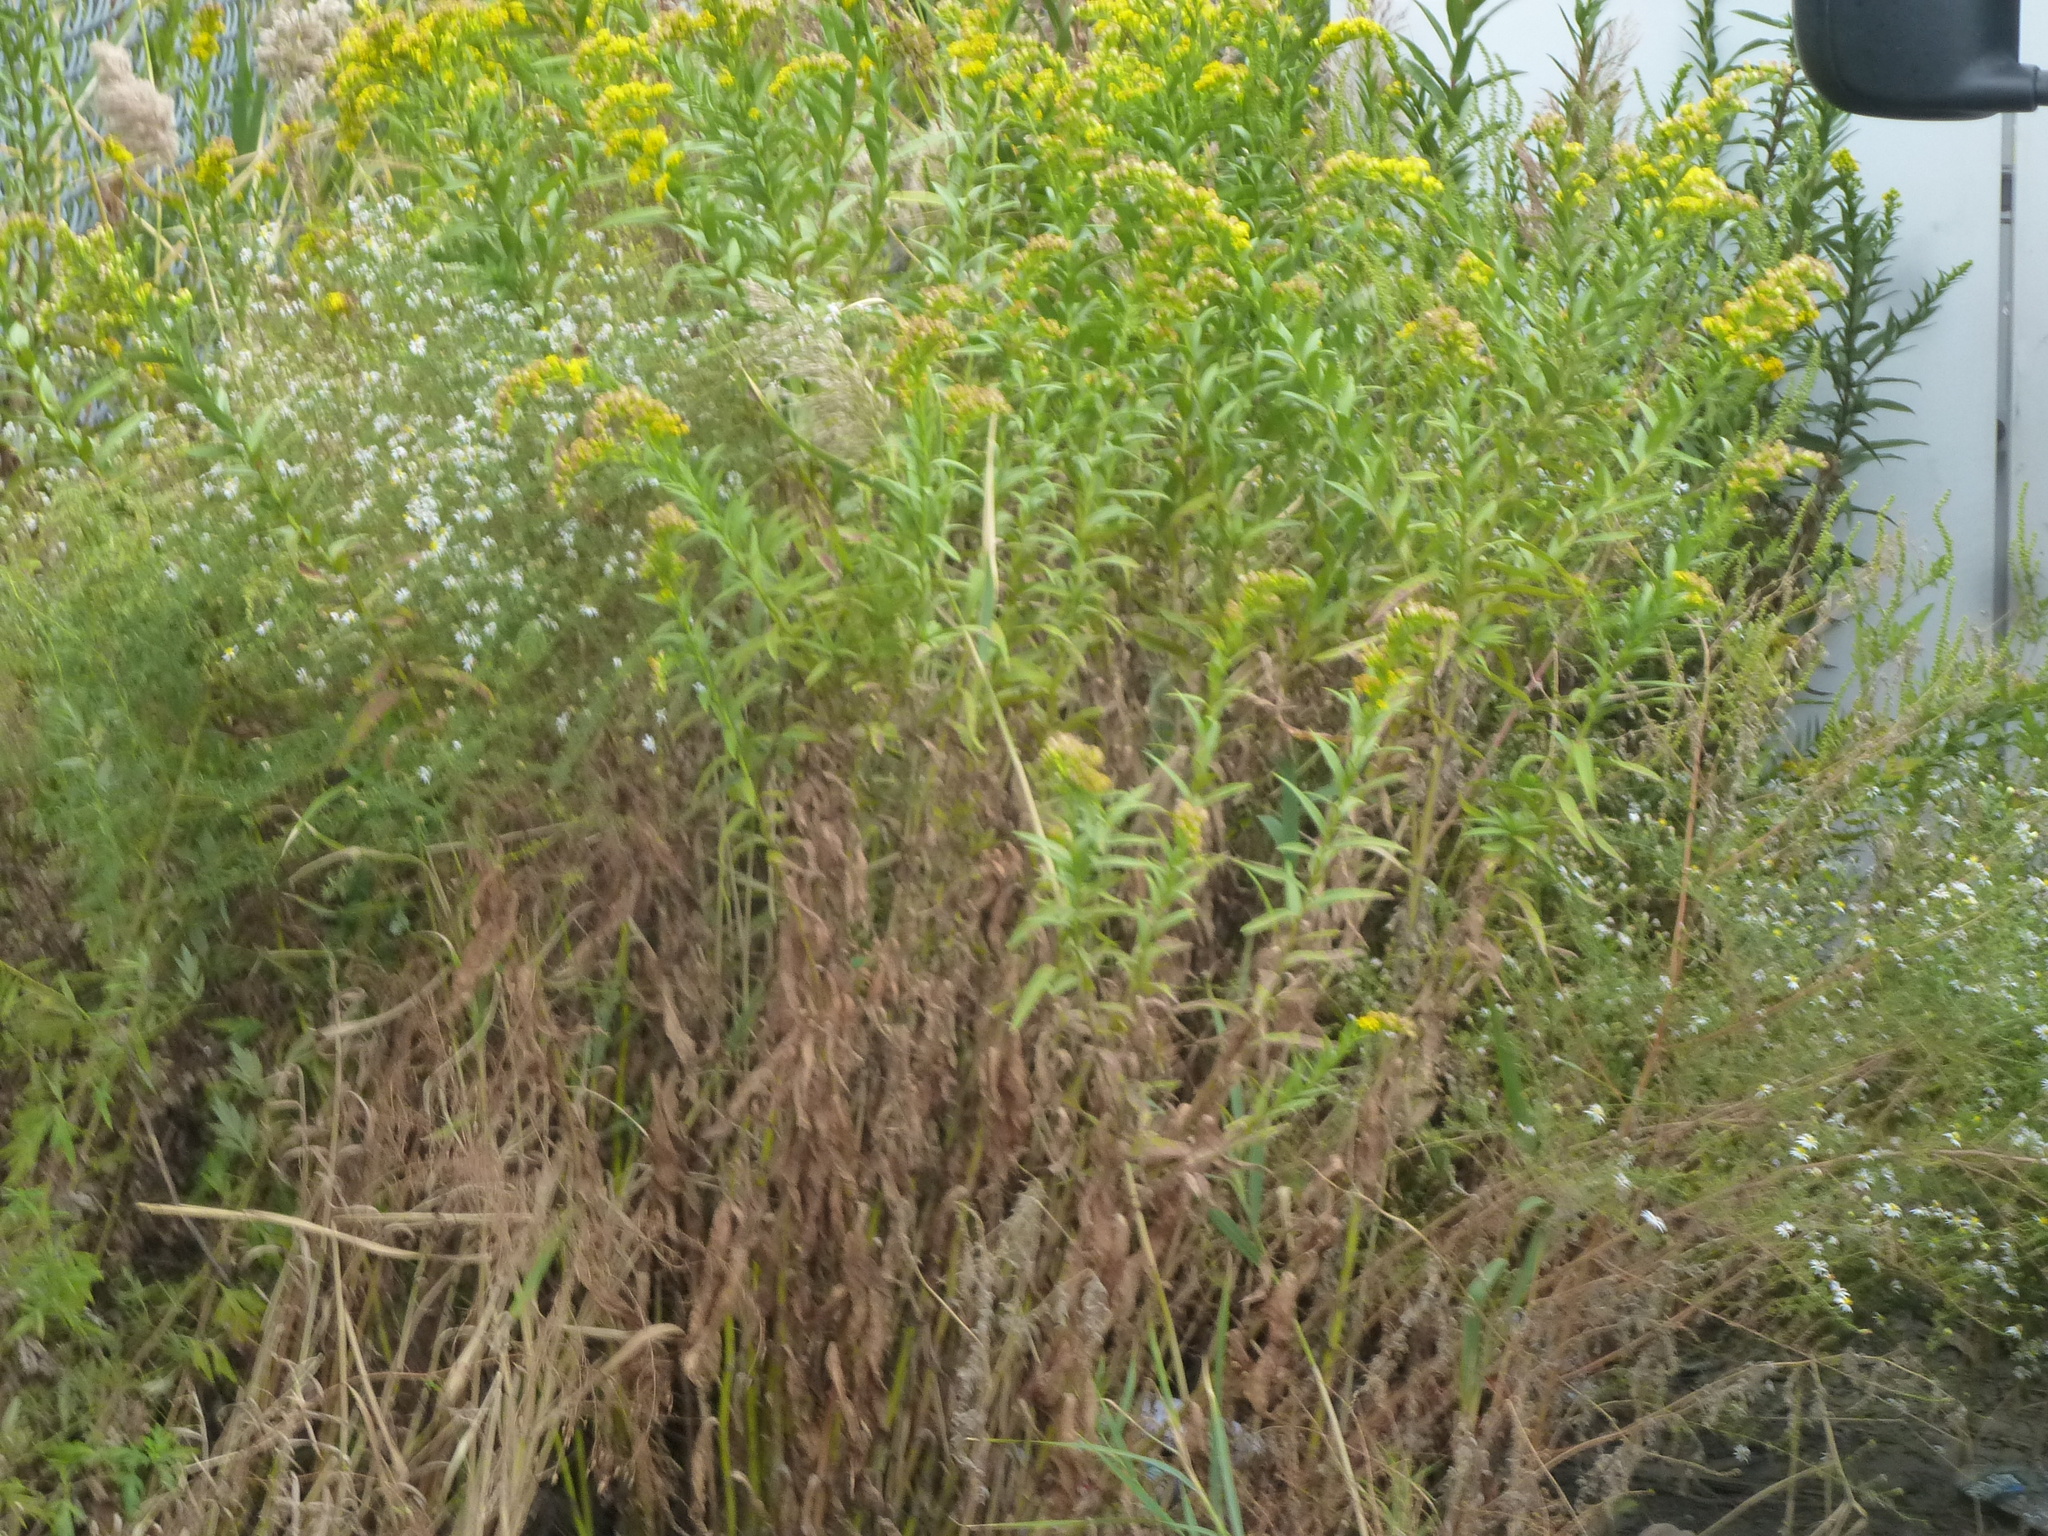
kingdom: Plantae
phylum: Tracheophyta
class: Magnoliopsida
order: Asterales
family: Asteraceae
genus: Solidago
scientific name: Solidago sempervirens
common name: Salt-marsh goldenrod
